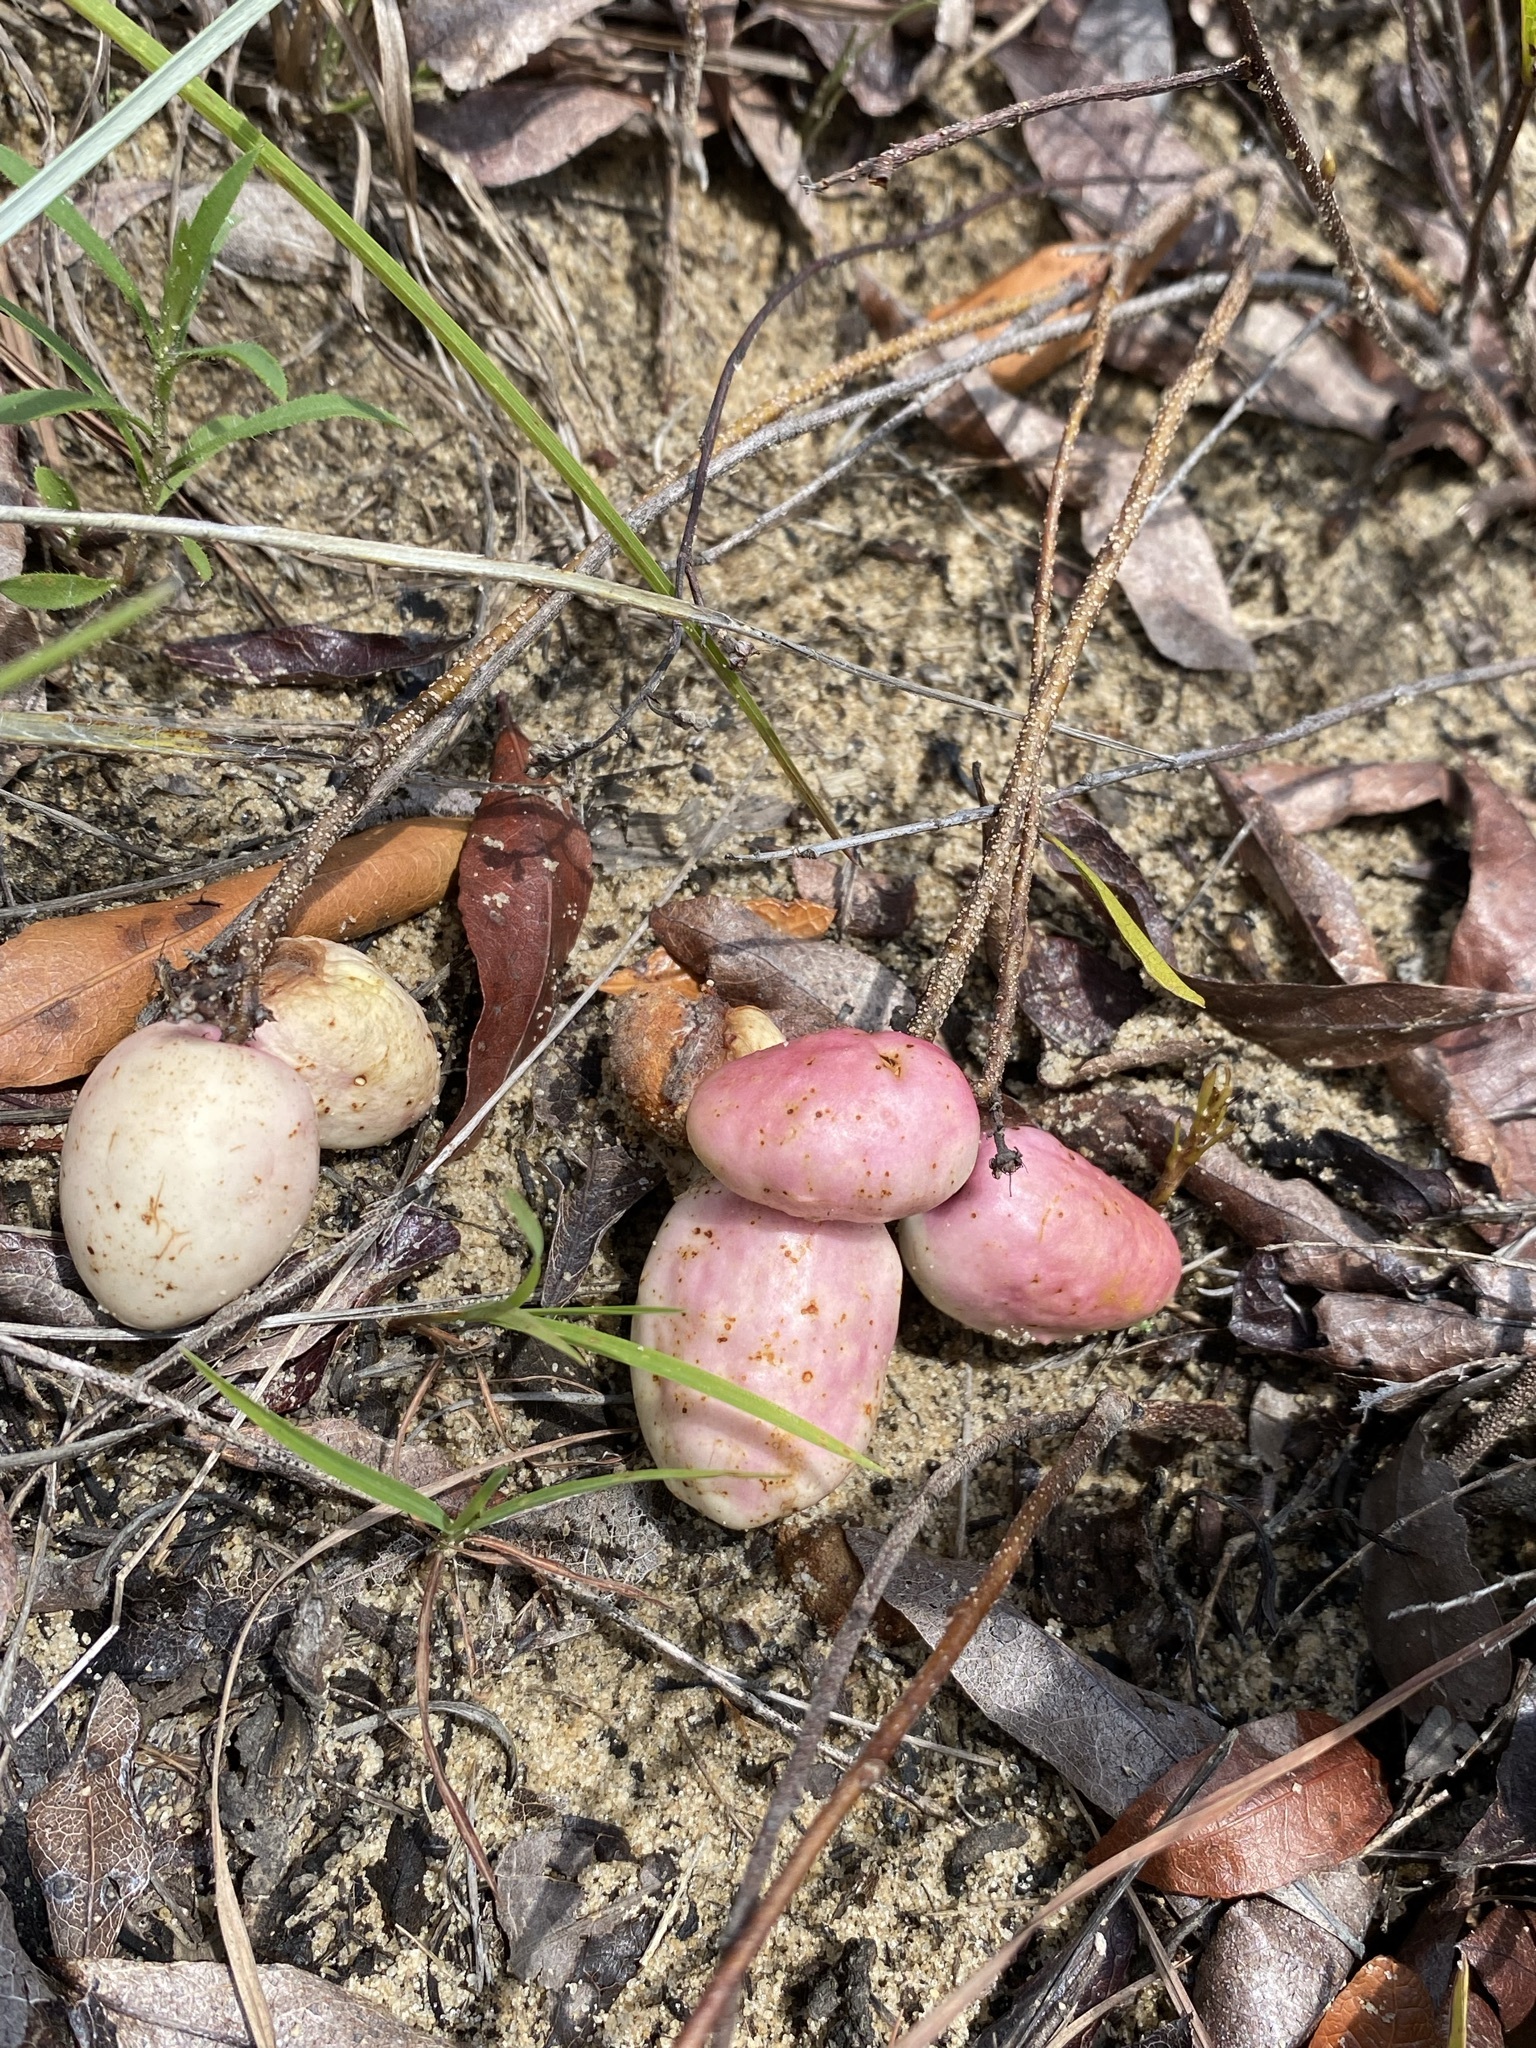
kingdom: Plantae
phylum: Tracheophyta
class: Magnoliopsida
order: Malpighiales
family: Chrysobalanaceae
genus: Geobalanus
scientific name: Geobalanus oblongifolius
